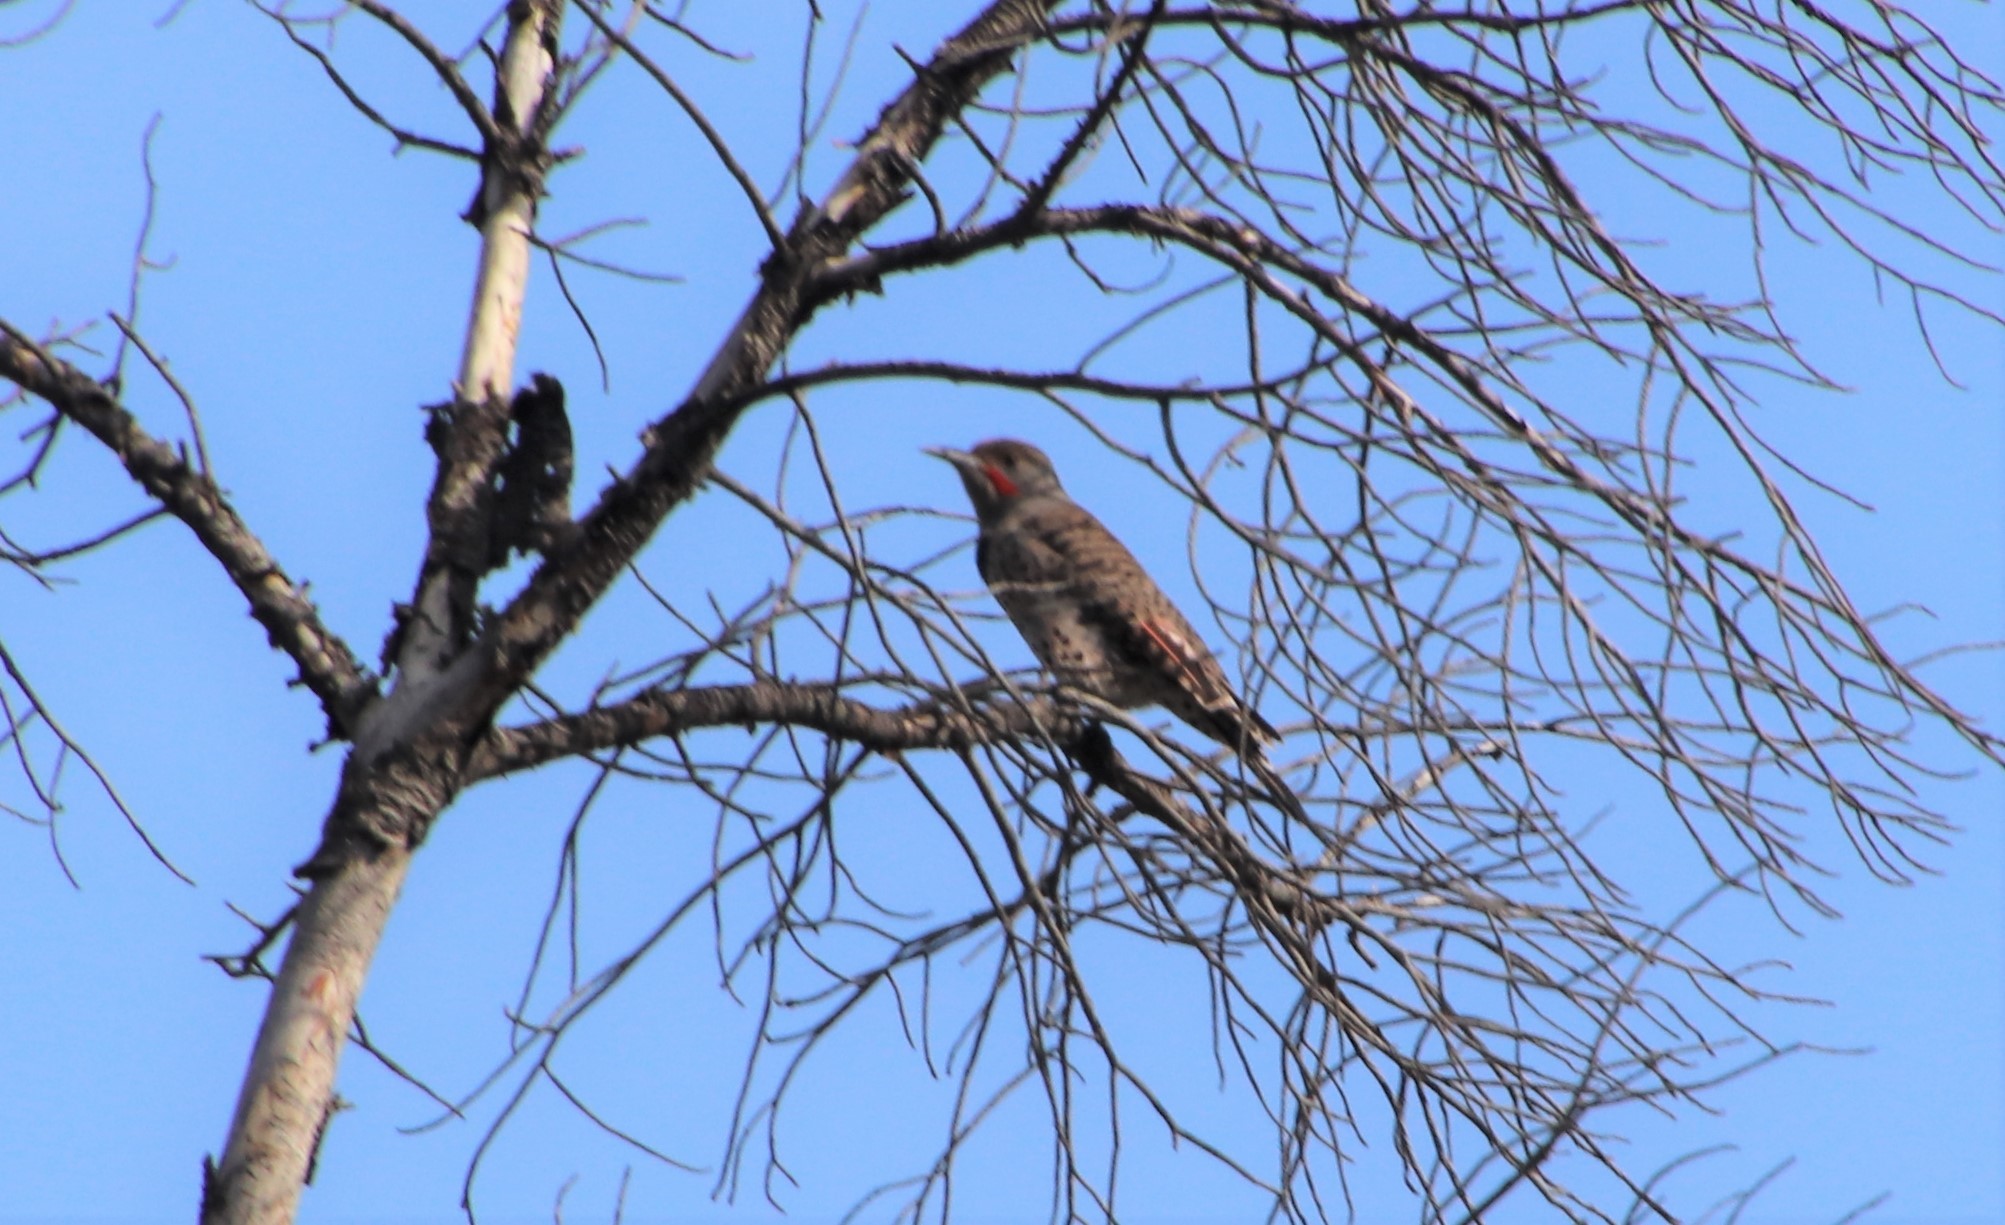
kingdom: Animalia
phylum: Chordata
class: Aves
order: Piciformes
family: Picidae
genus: Colaptes
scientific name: Colaptes auratus
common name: Northern flicker
